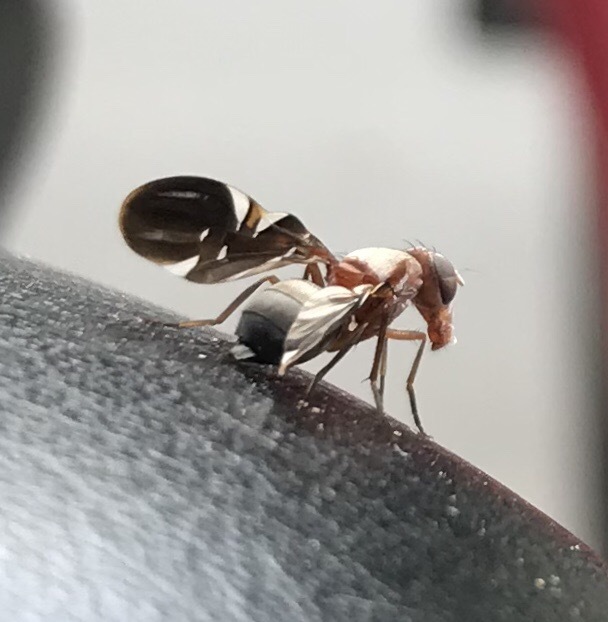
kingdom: Animalia
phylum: Arthropoda
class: Insecta
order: Diptera
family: Ulidiidae
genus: Delphinia
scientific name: Delphinia picta
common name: Common picture-winged fly
